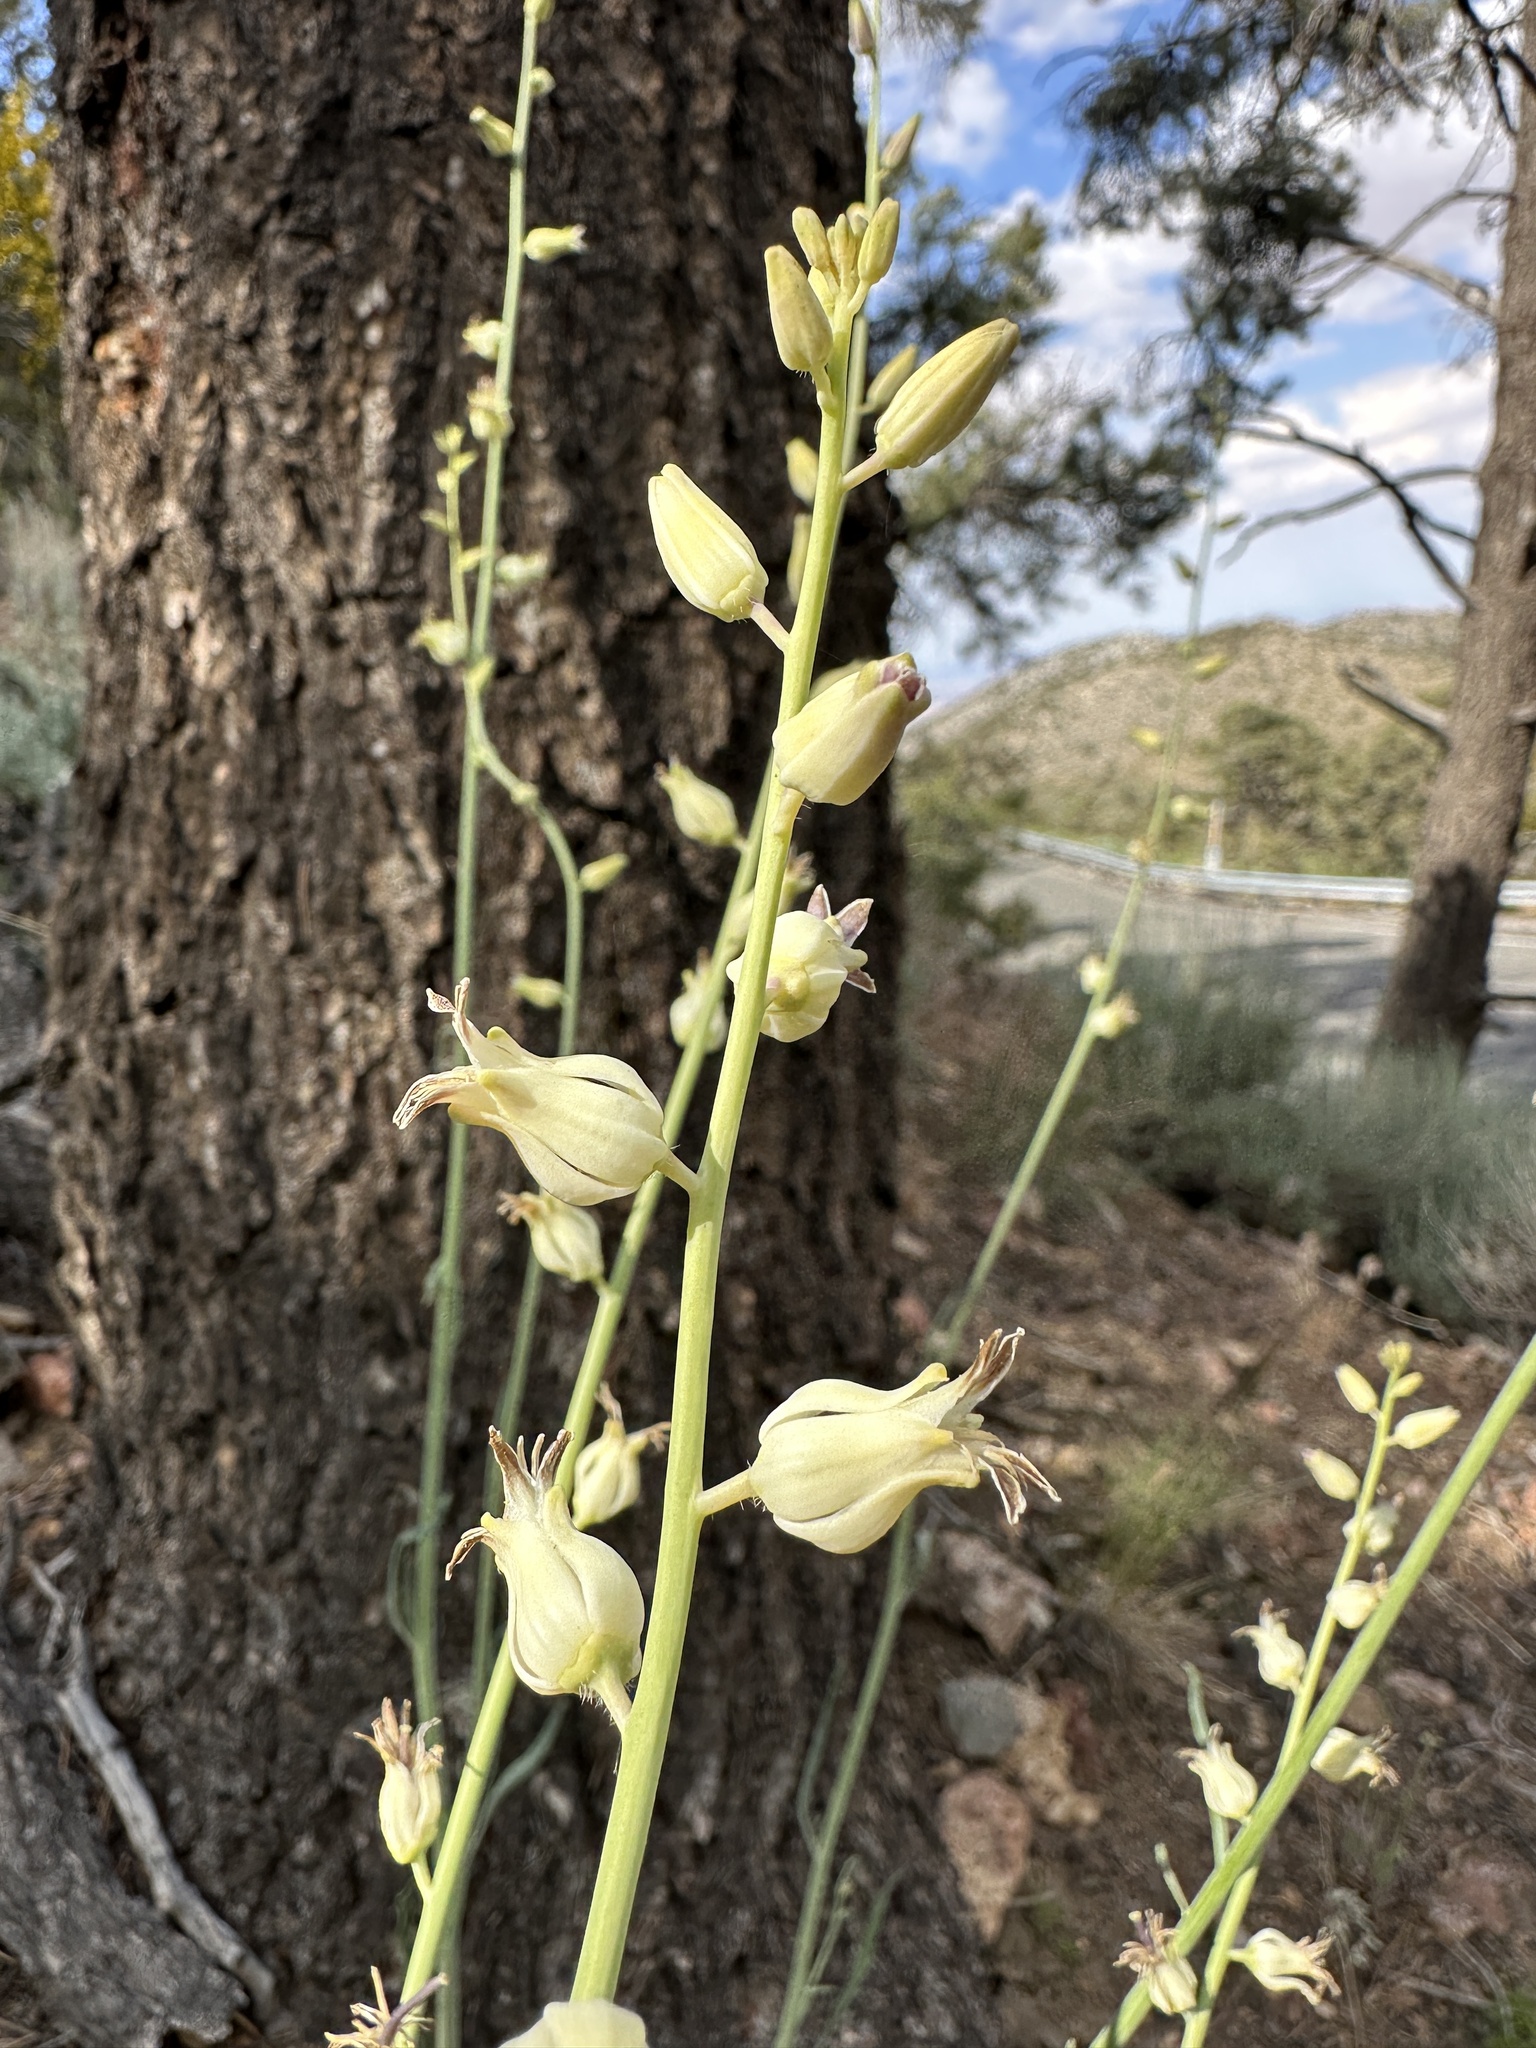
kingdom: Plantae
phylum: Tracheophyta
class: Magnoliopsida
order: Brassicales
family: Brassicaceae
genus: Streptanthus
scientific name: Streptanthus major
